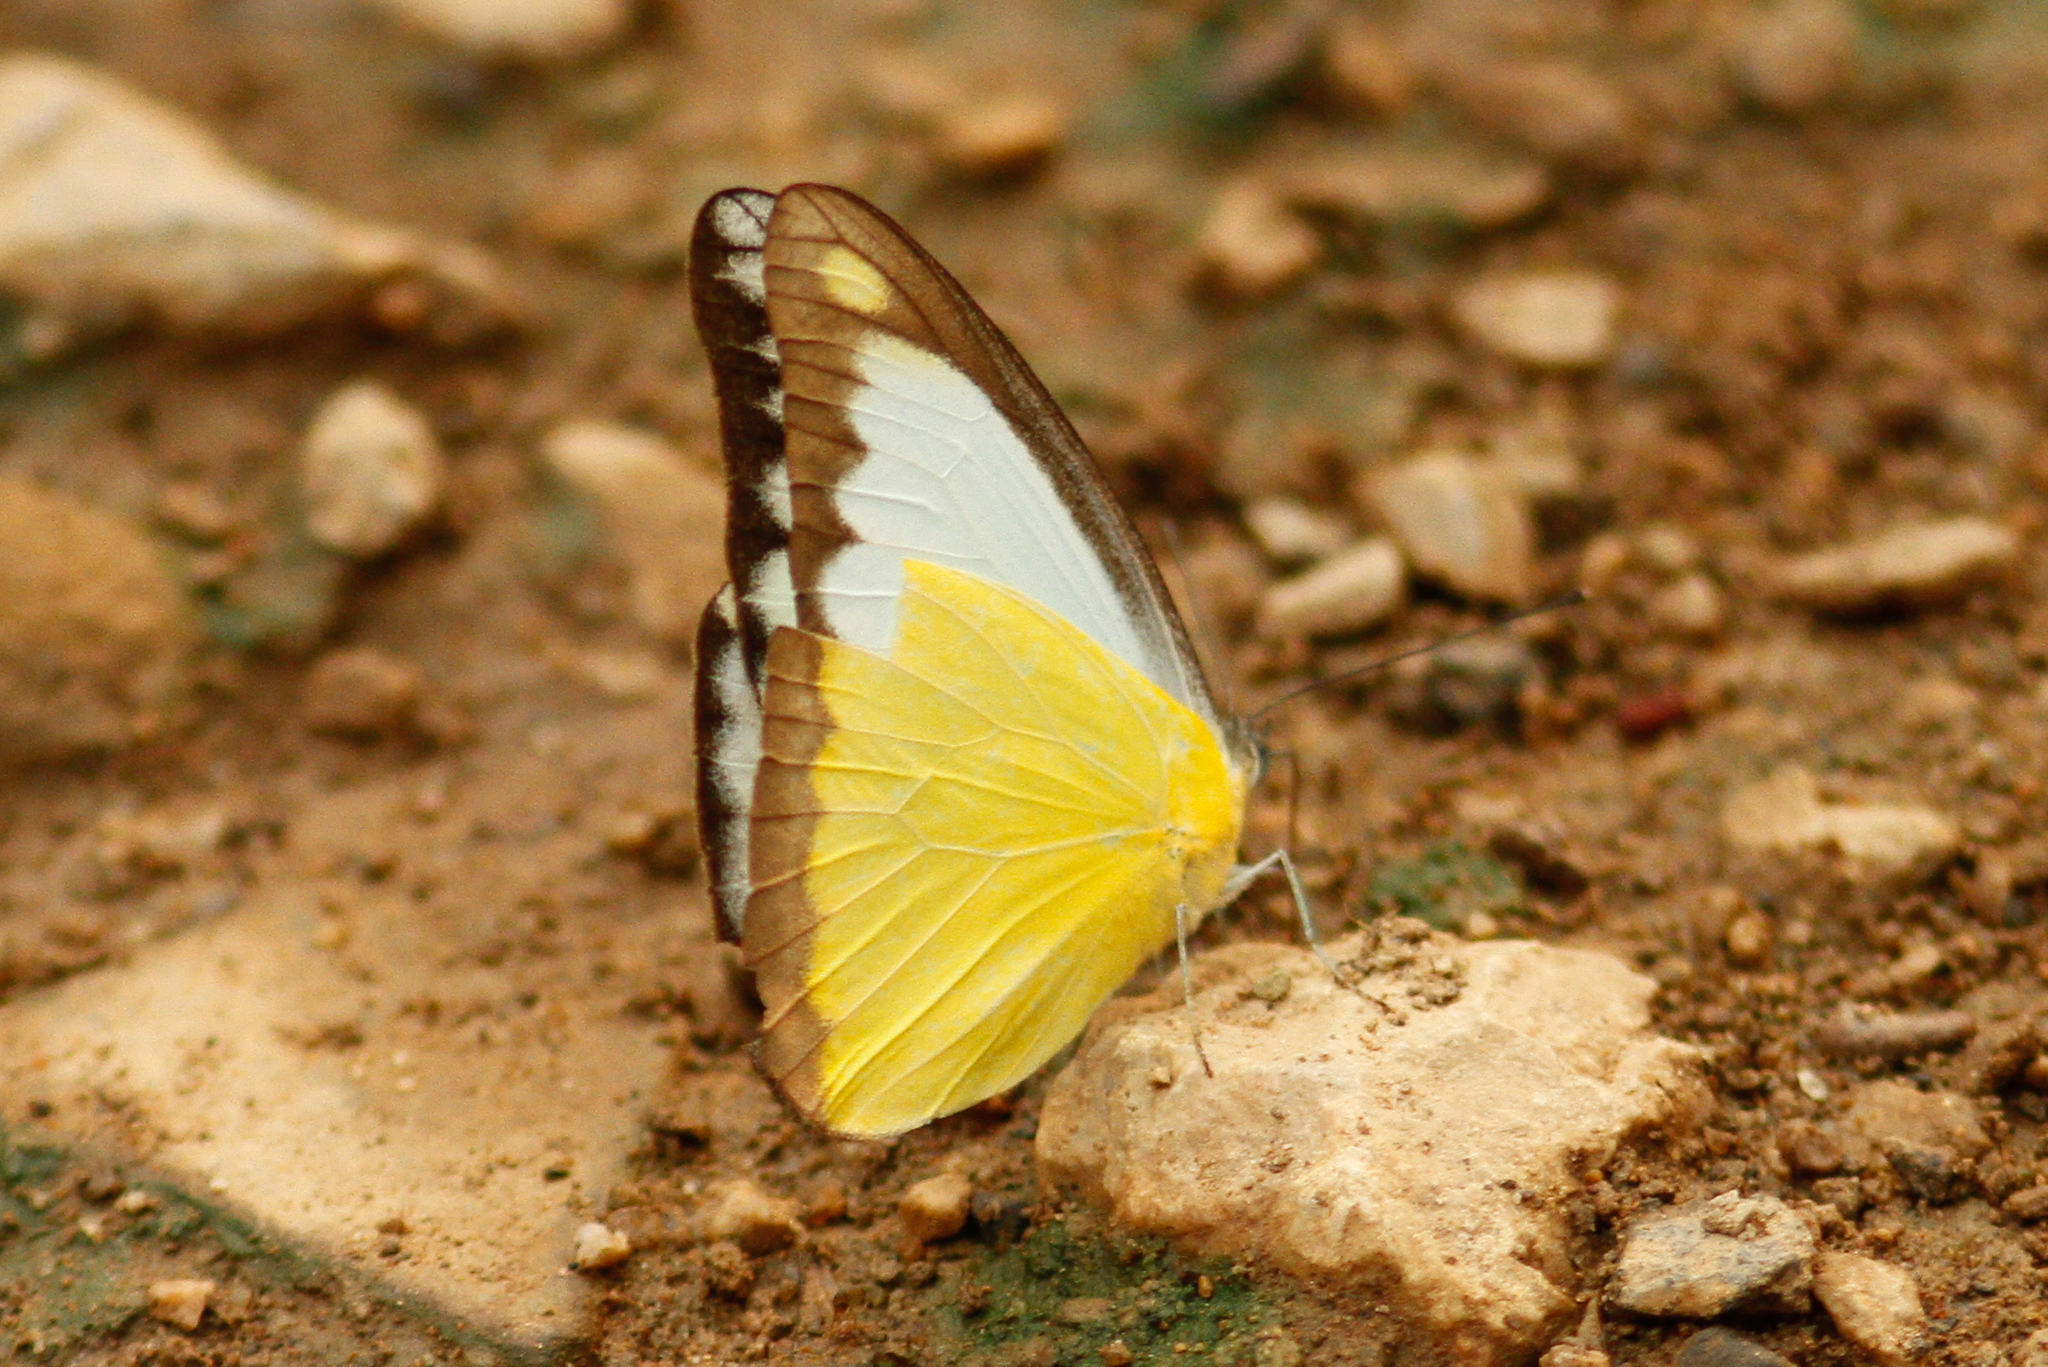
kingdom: Animalia
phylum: Arthropoda
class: Insecta
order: Lepidoptera
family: Pieridae
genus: Appias
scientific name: Appias lyncida
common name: Chocolate albatross
